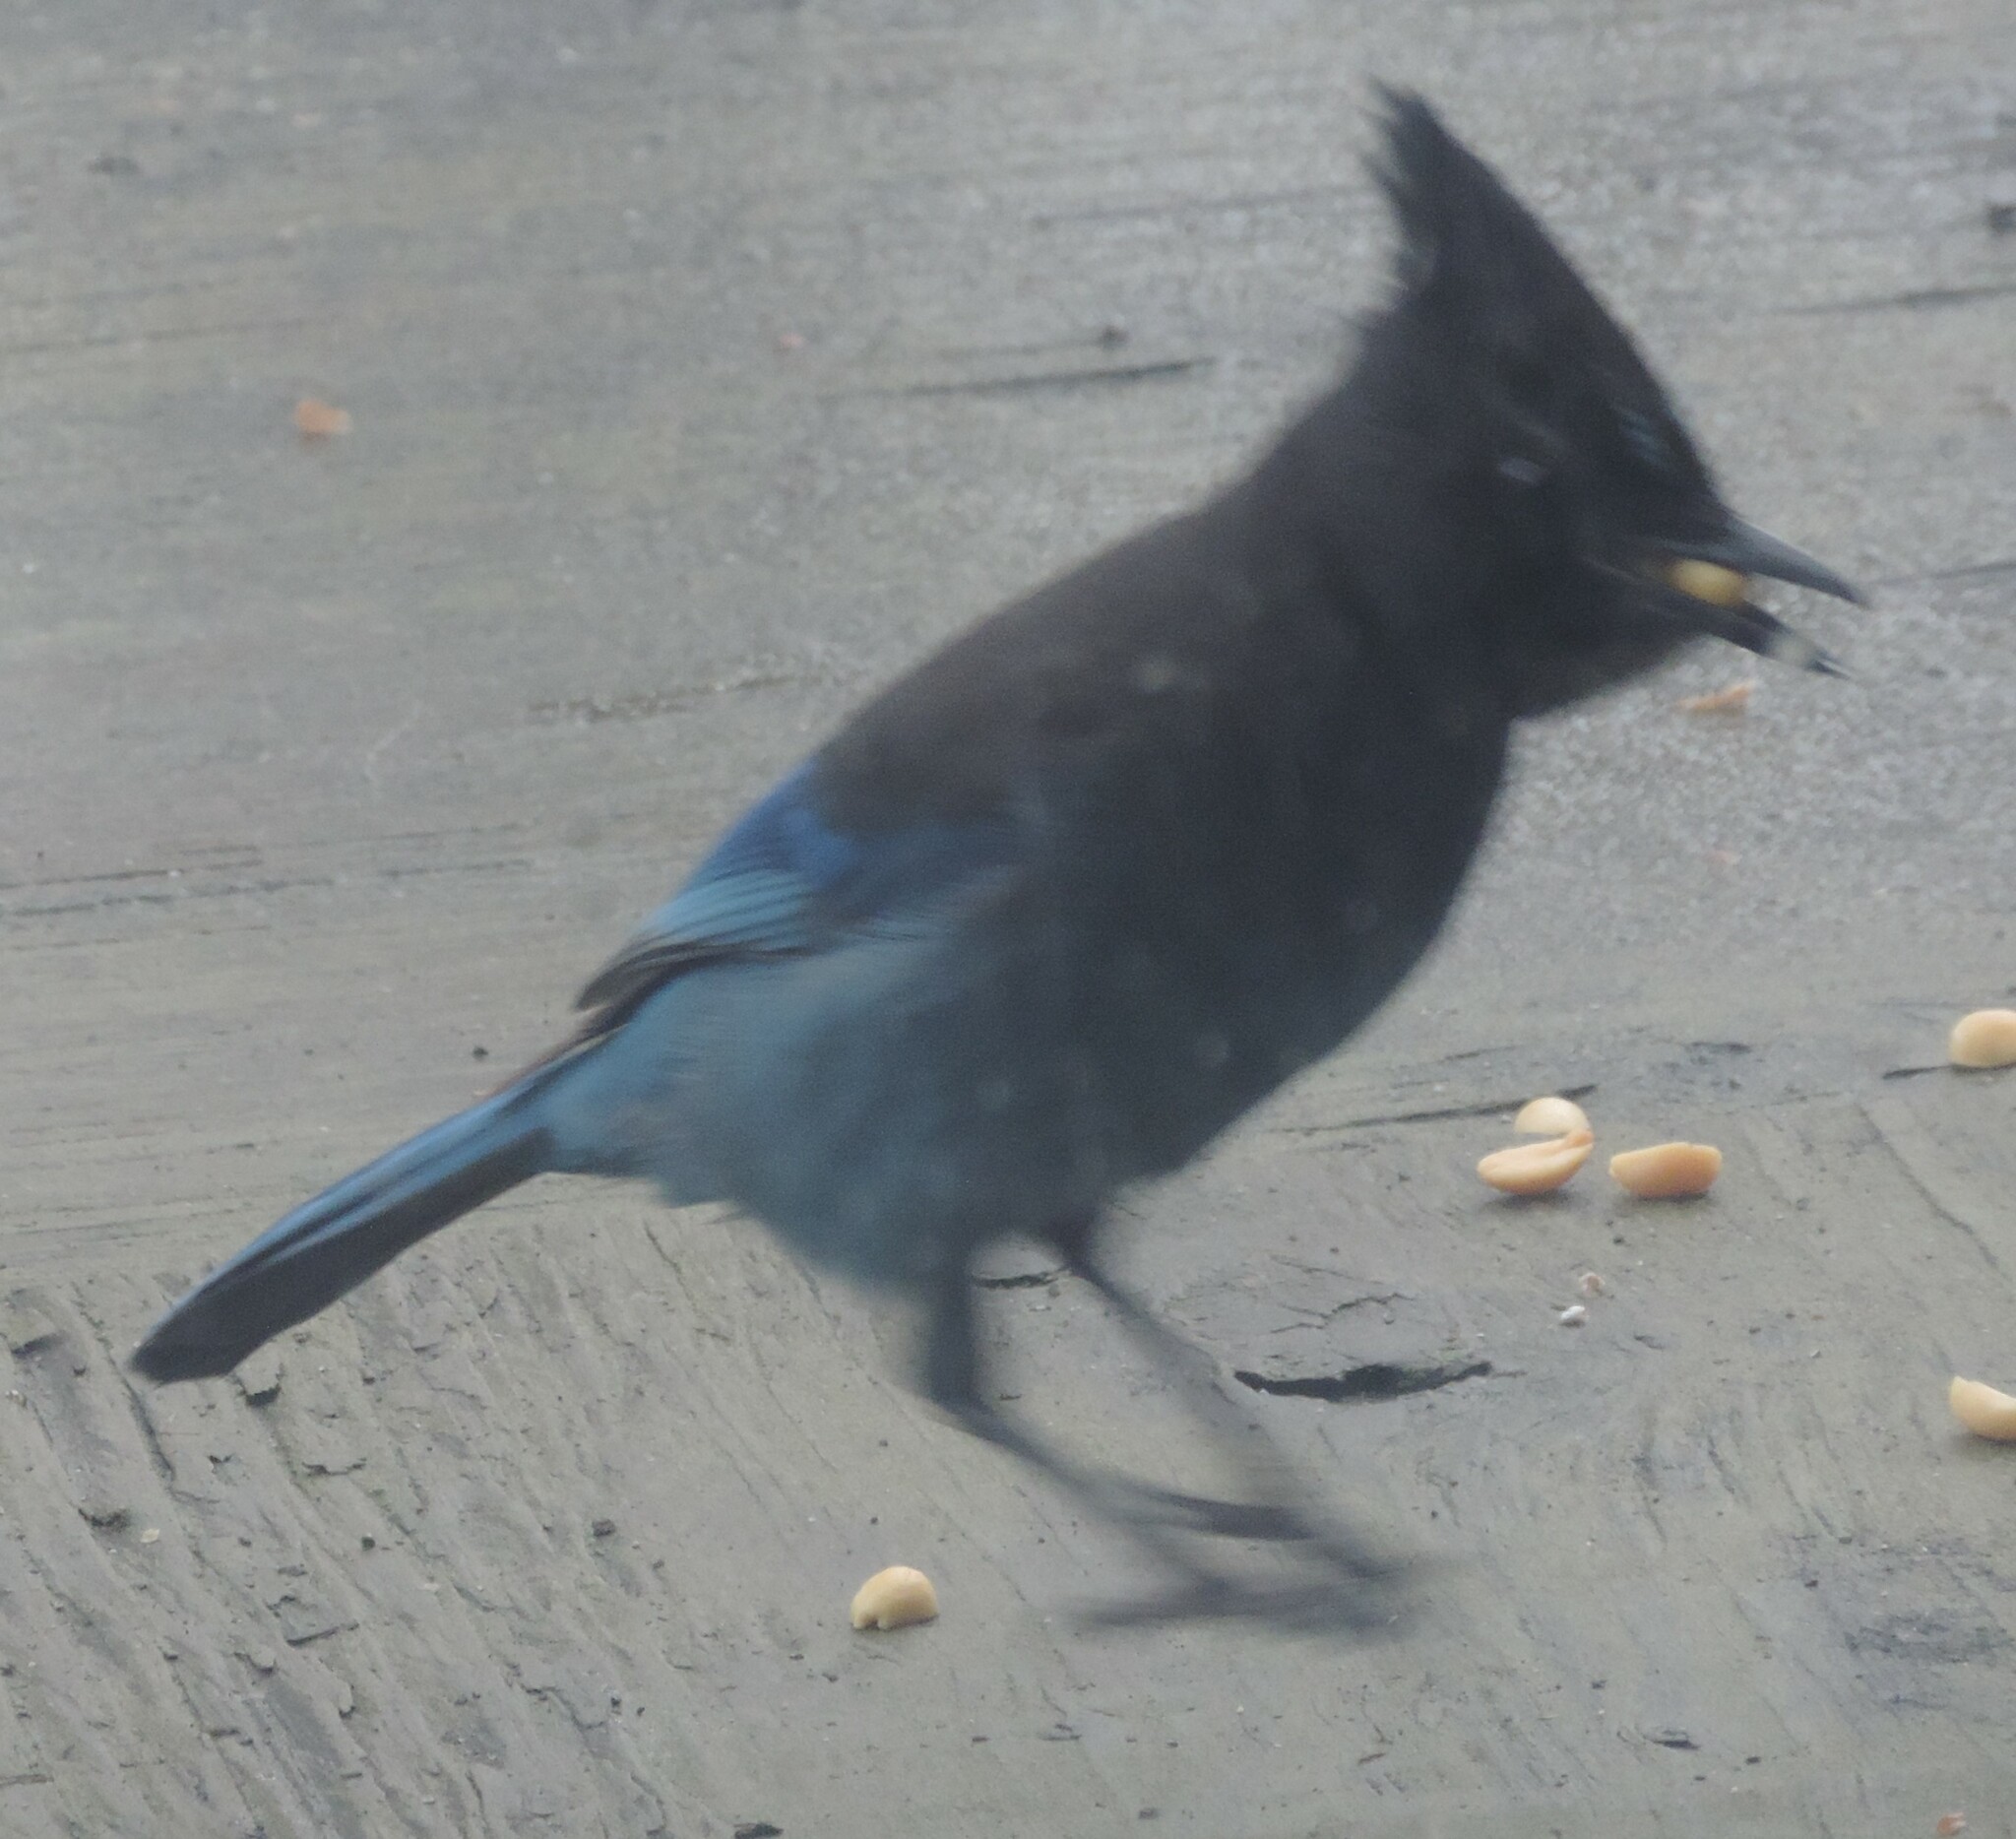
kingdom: Animalia
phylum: Chordata
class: Aves
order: Passeriformes
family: Corvidae
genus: Cyanocitta
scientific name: Cyanocitta stelleri
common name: Steller's jay
